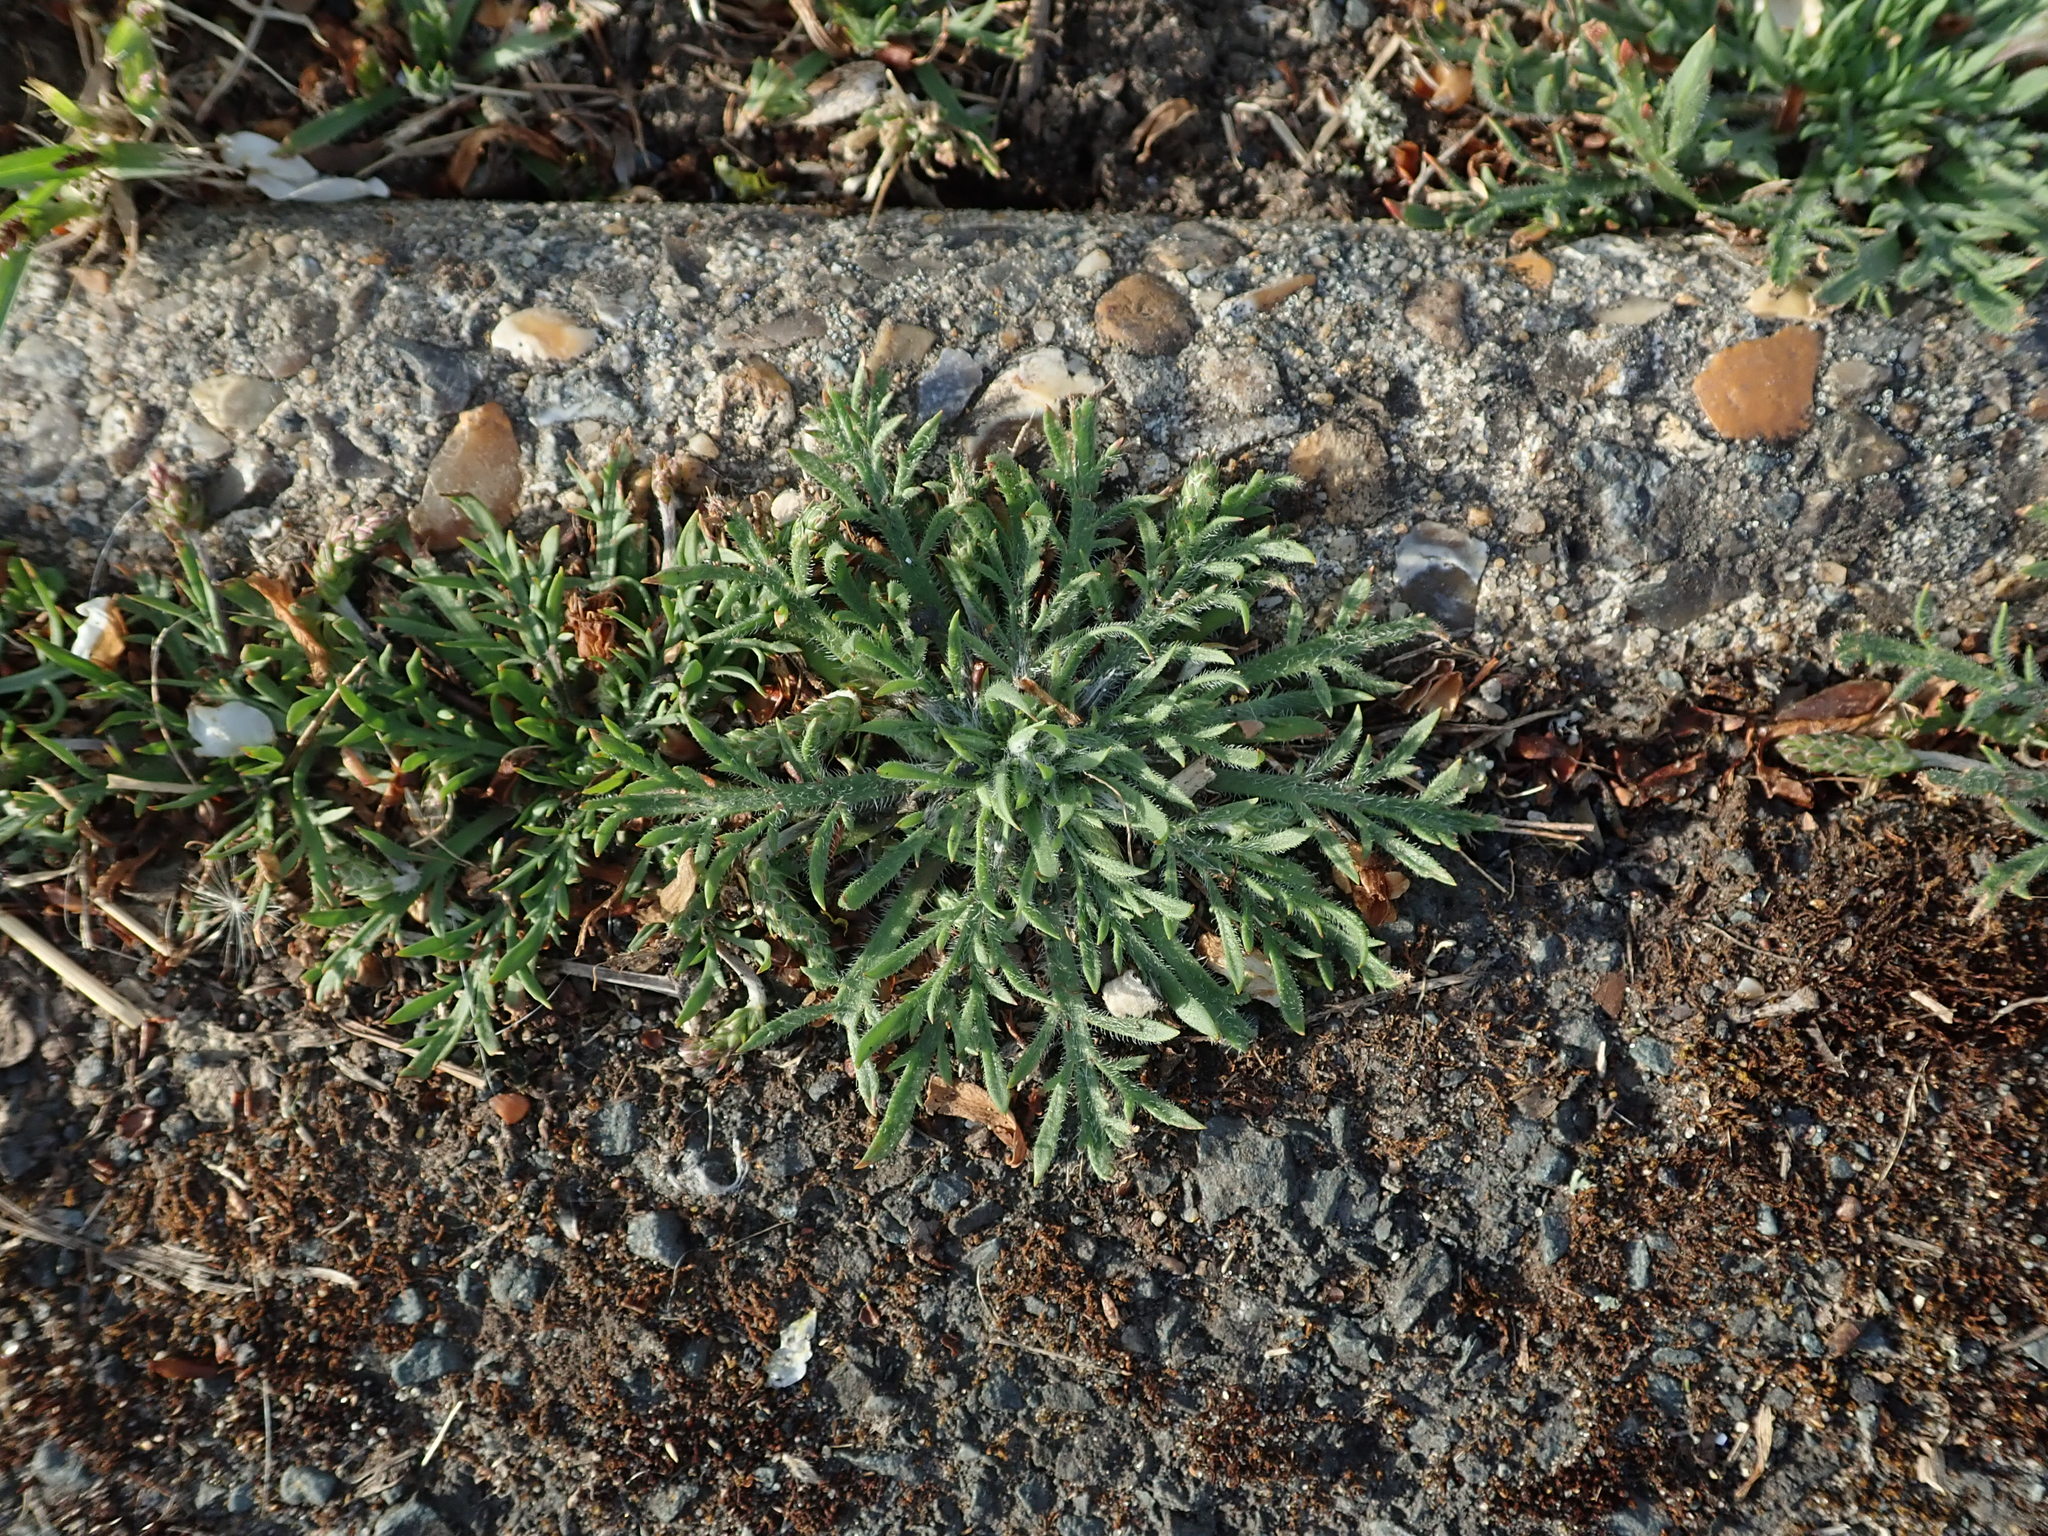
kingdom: Plantae
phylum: Tracheophyta
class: Magnoliopsida
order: Lamiales
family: Plantaginaceae
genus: Plantago
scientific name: Plantago coronopus
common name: Buck's-horn plantain
